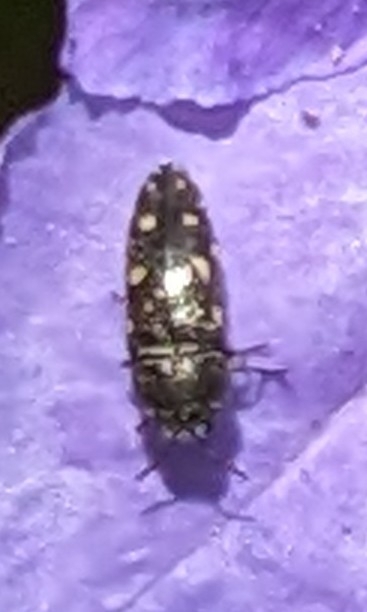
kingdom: Animalia
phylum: Arthropoda
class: Insecta
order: Coleoptera
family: Buprestidae
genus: Acmaeodera
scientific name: Acmaeodera tubulus
